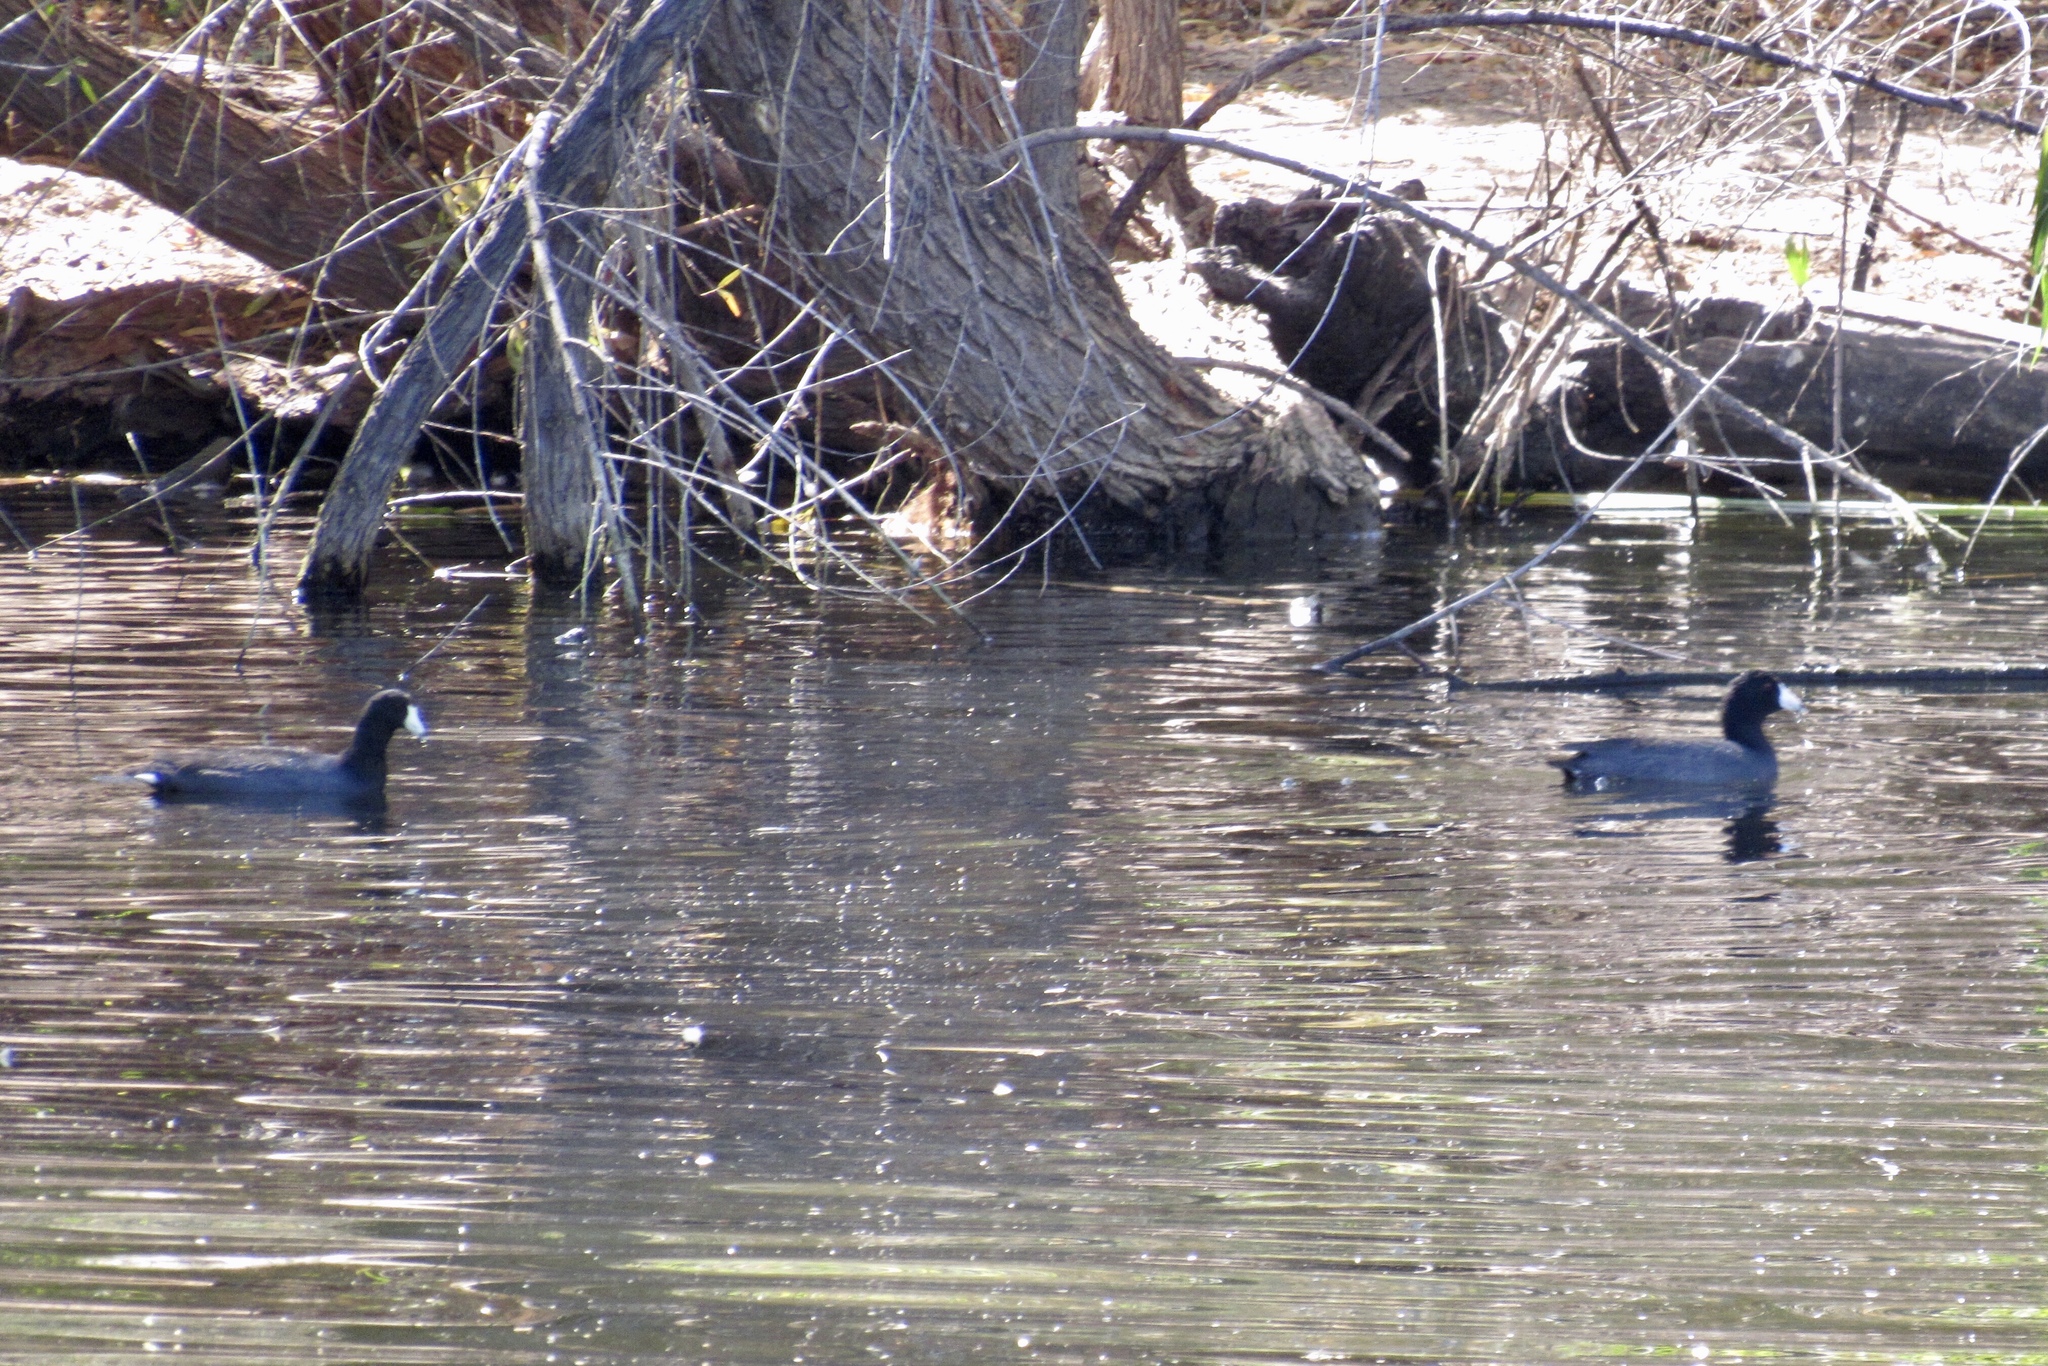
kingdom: Animalia
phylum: Chordata
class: Aves
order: Gruiformes
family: Rallidae
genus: Fulica
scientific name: Fulica americana
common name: American coot
